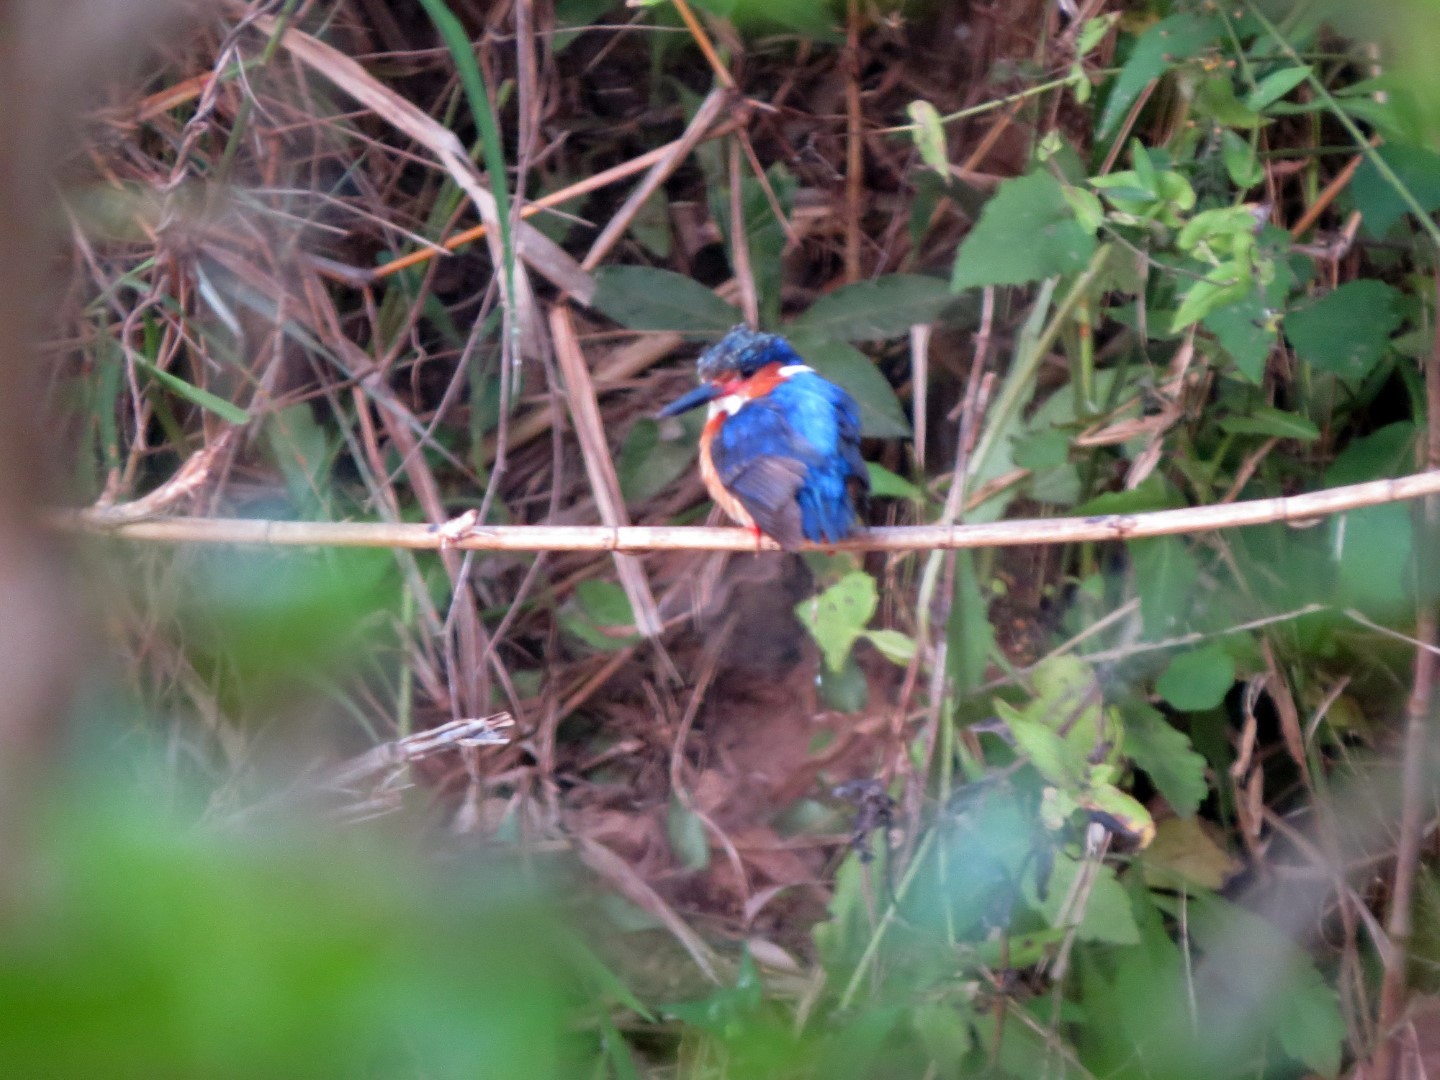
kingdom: Animalia
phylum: Chordata
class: Aves
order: Coraciiformes
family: Alcedinidae
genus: Corythornis
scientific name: Corythornis vintsioides
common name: Malagasy kingfisher
